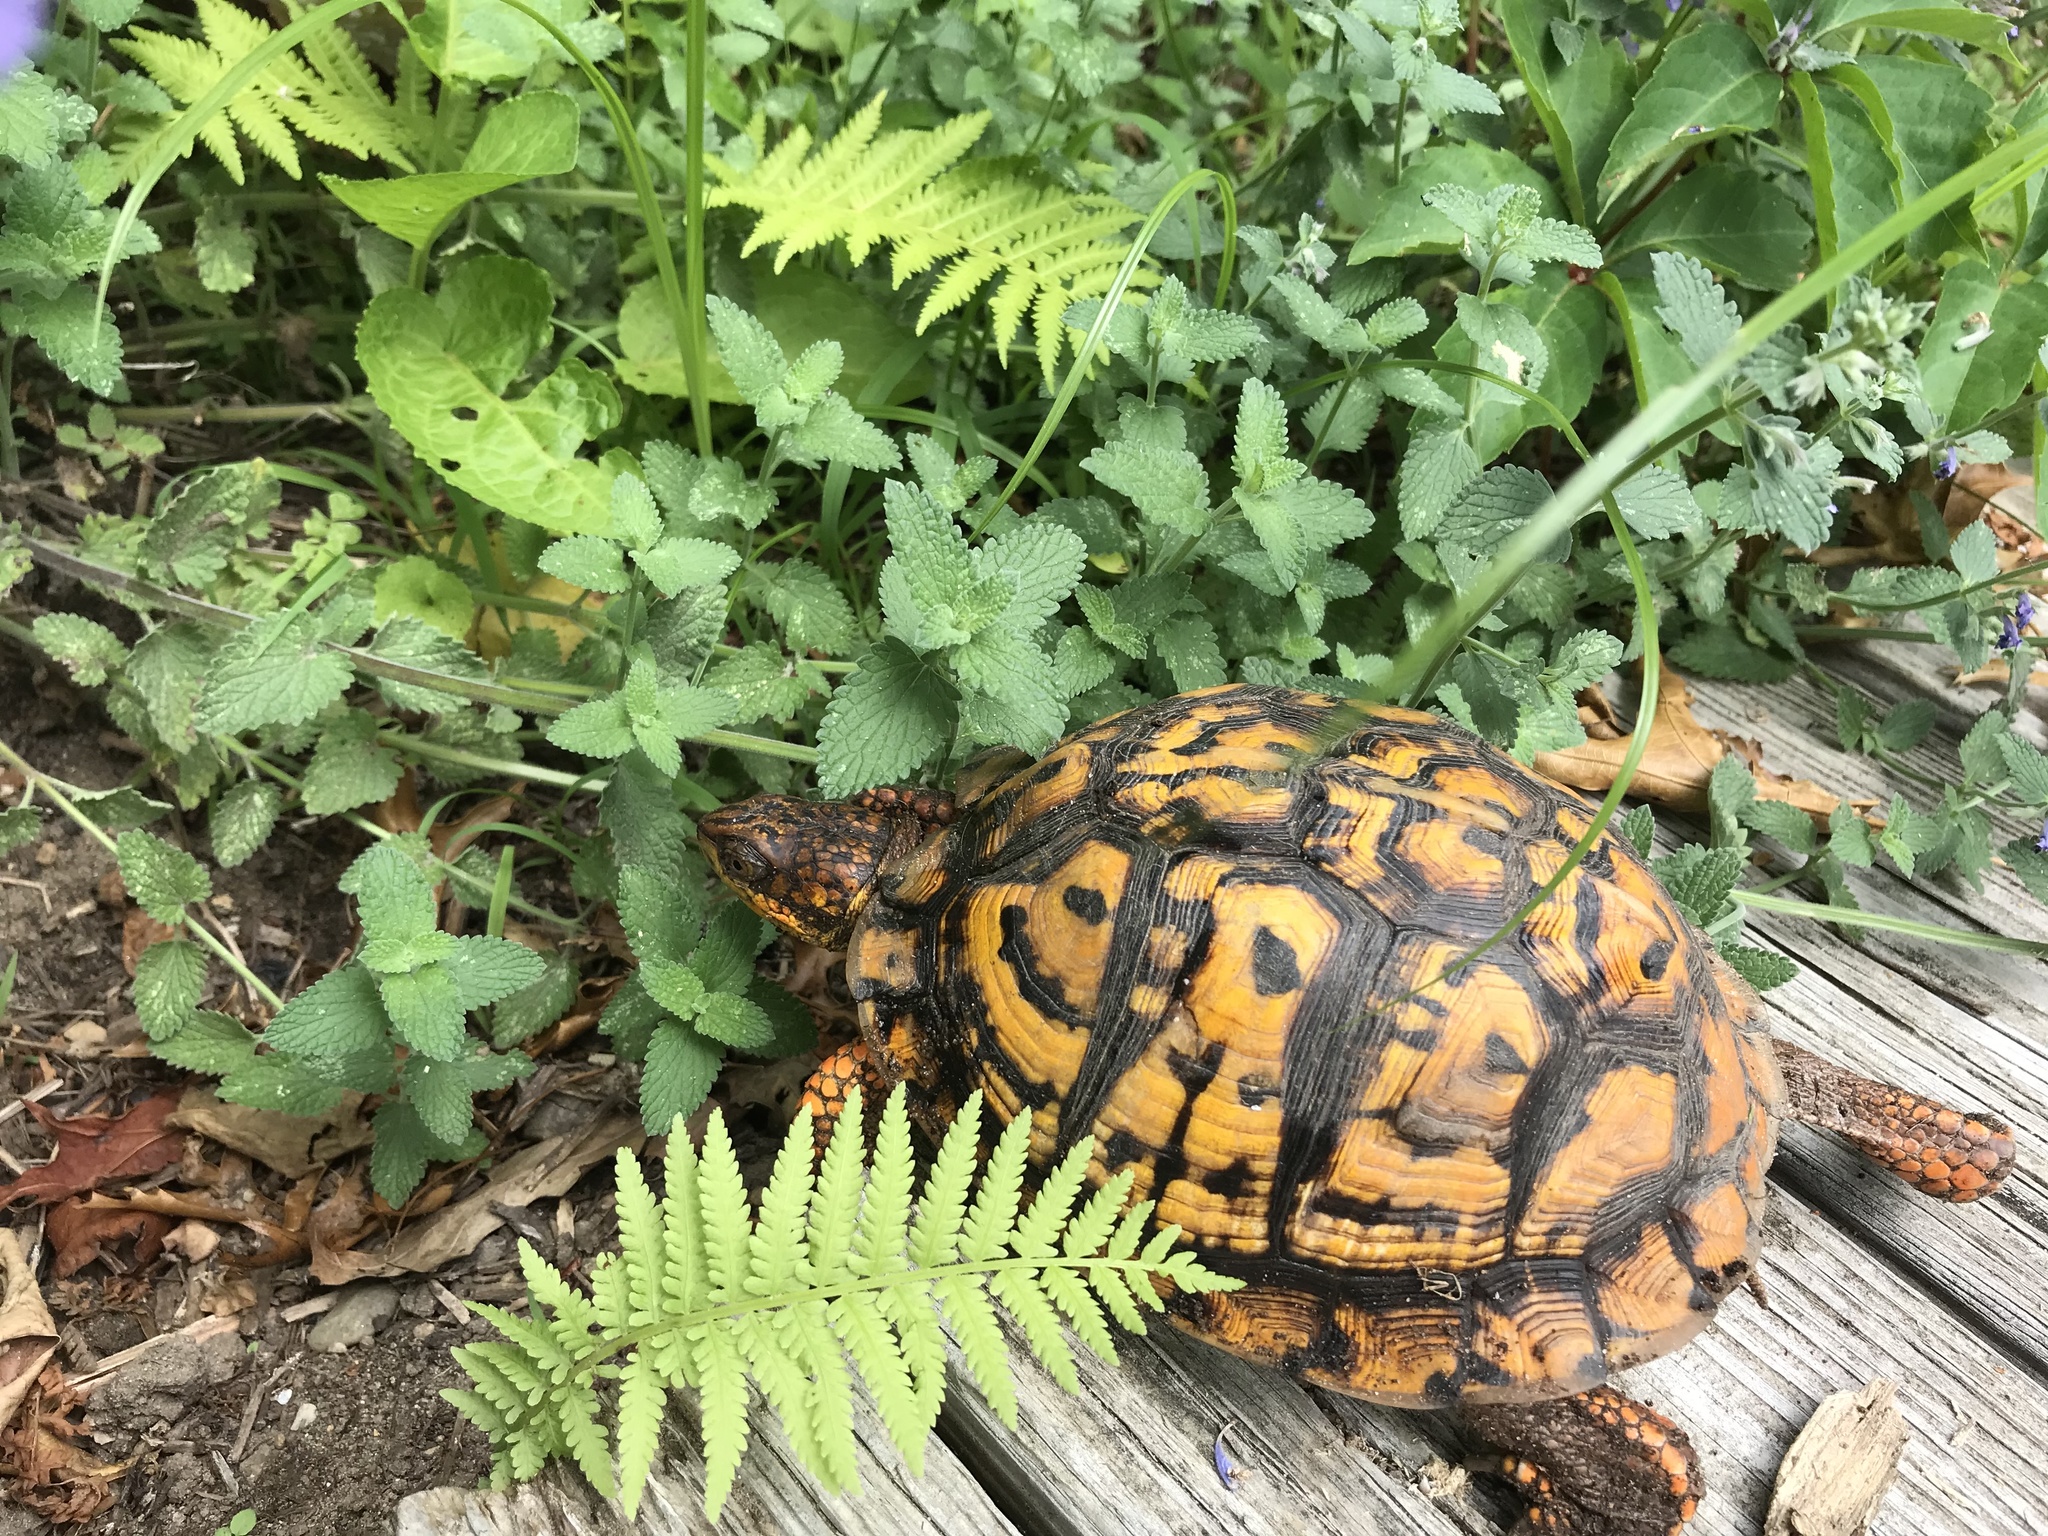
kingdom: Animalia
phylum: Chordata
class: Testudines
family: Emydidae
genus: Terrapene
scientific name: Terrapene carolina
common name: Common box turtle
